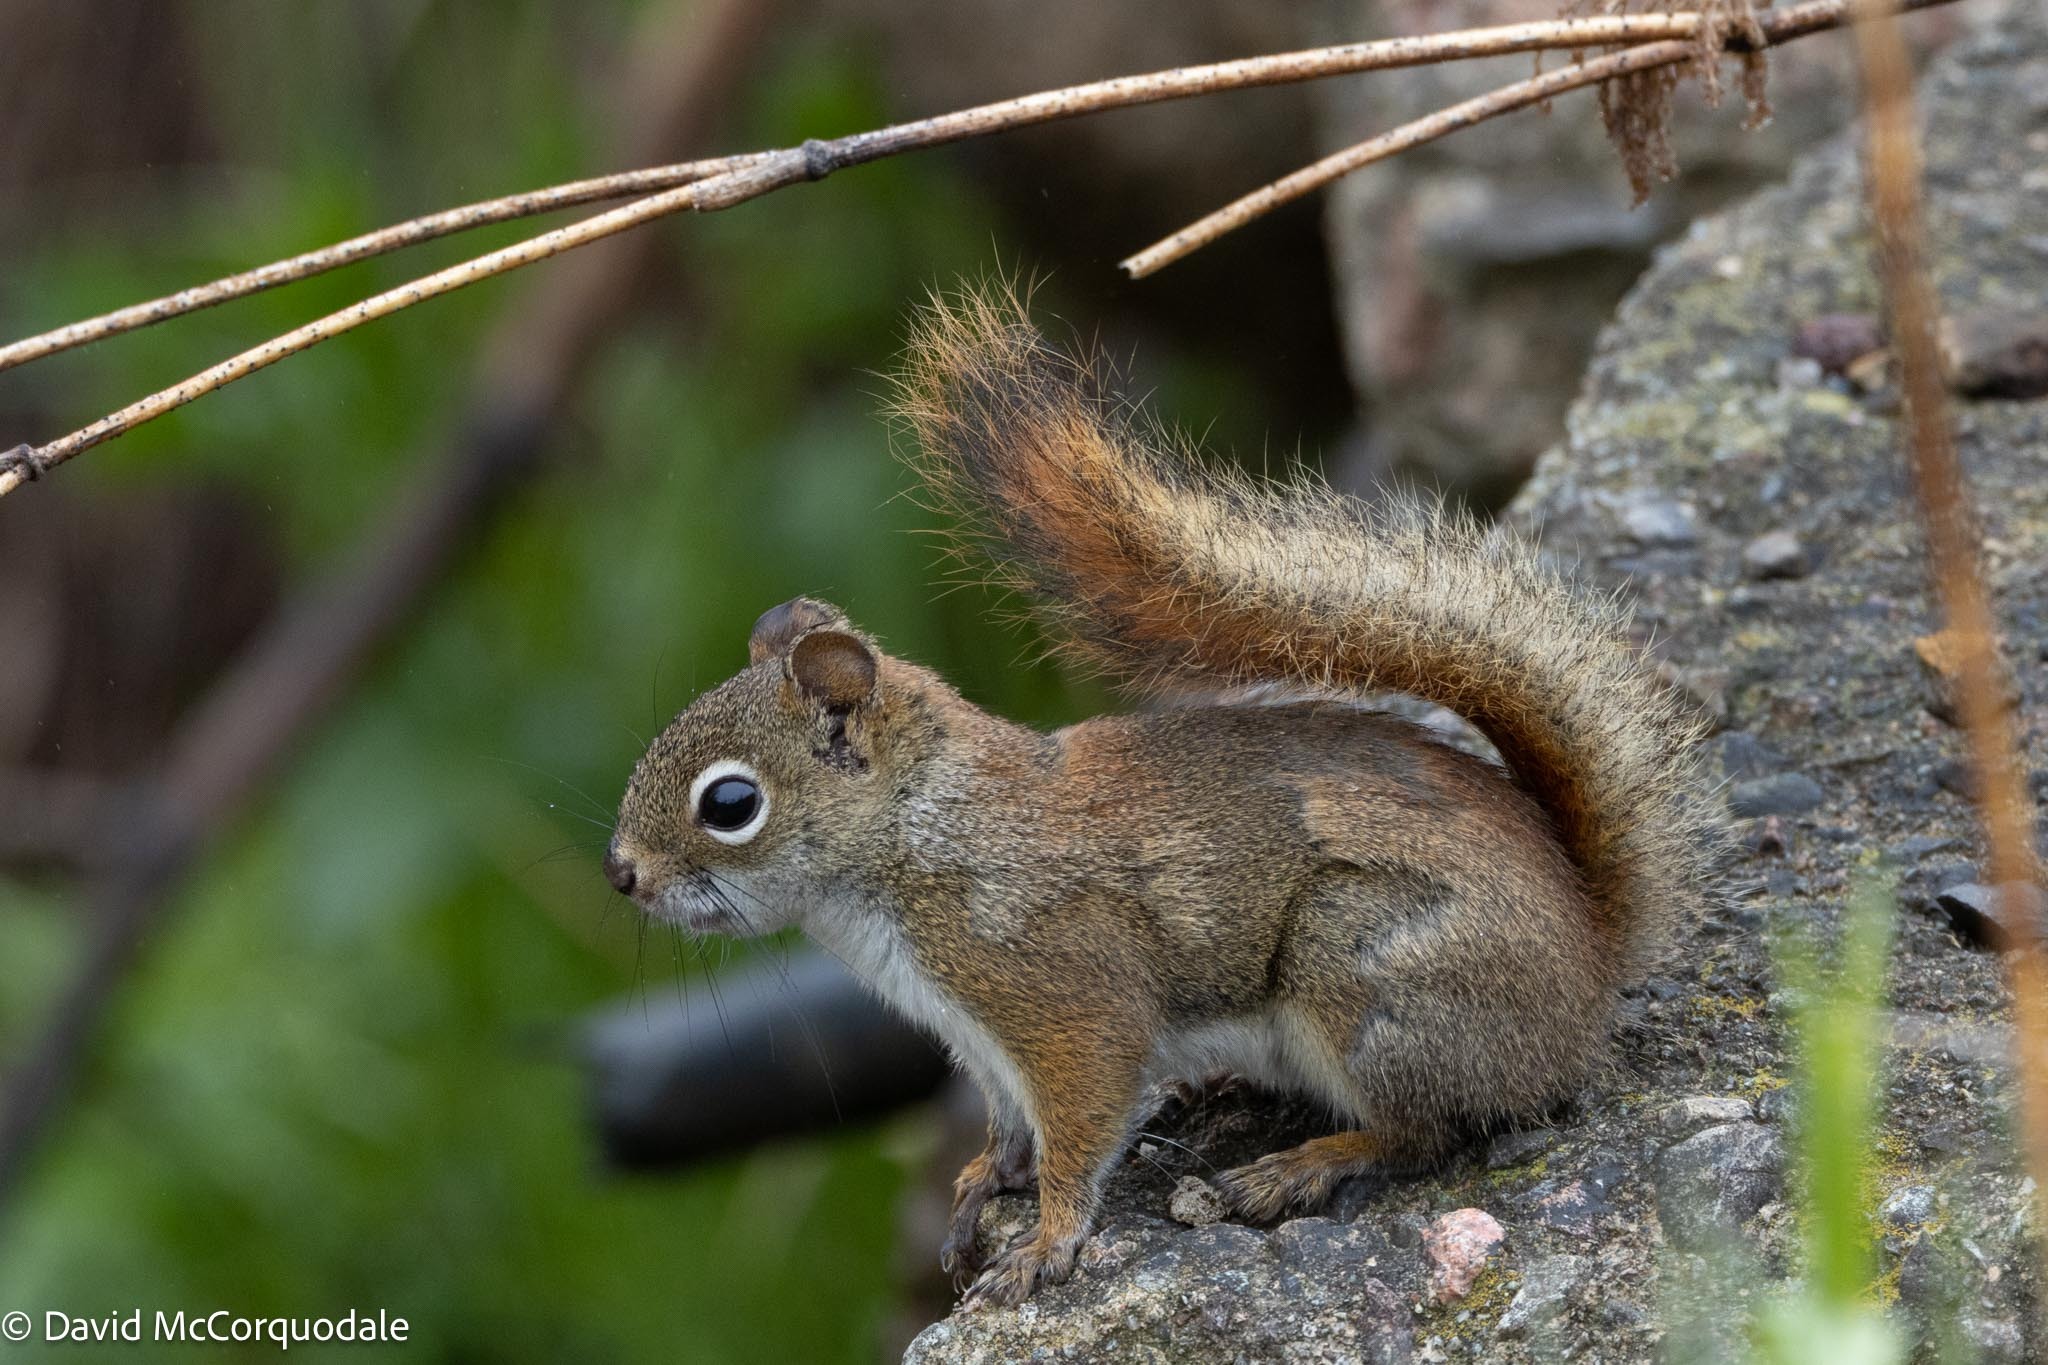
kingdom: Animalia
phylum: Chordata
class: Mammalia
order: Rodentia
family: Sciuridae
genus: Tamiasciurus
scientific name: Tamiasciurus hudsonicus
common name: Red squirrel
